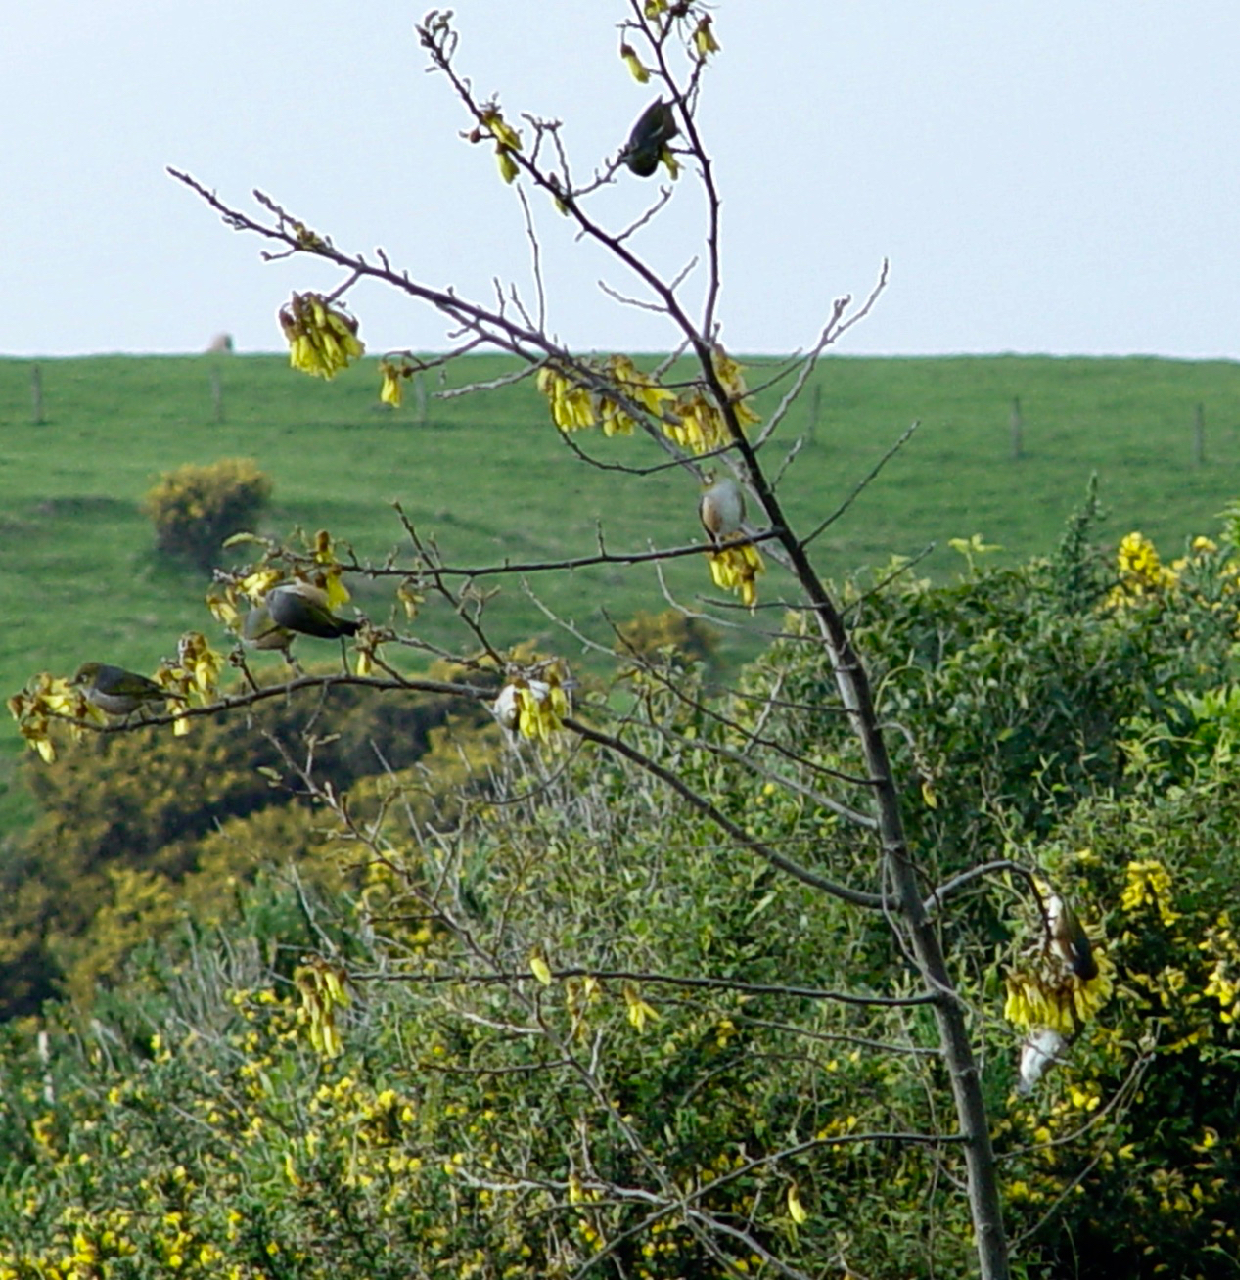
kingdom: Animalia
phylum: Chordata
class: Aves
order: Passeriformes
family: Zosteropidae
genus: Zosterops
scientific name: Zosterops lateralis
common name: Silvereye
